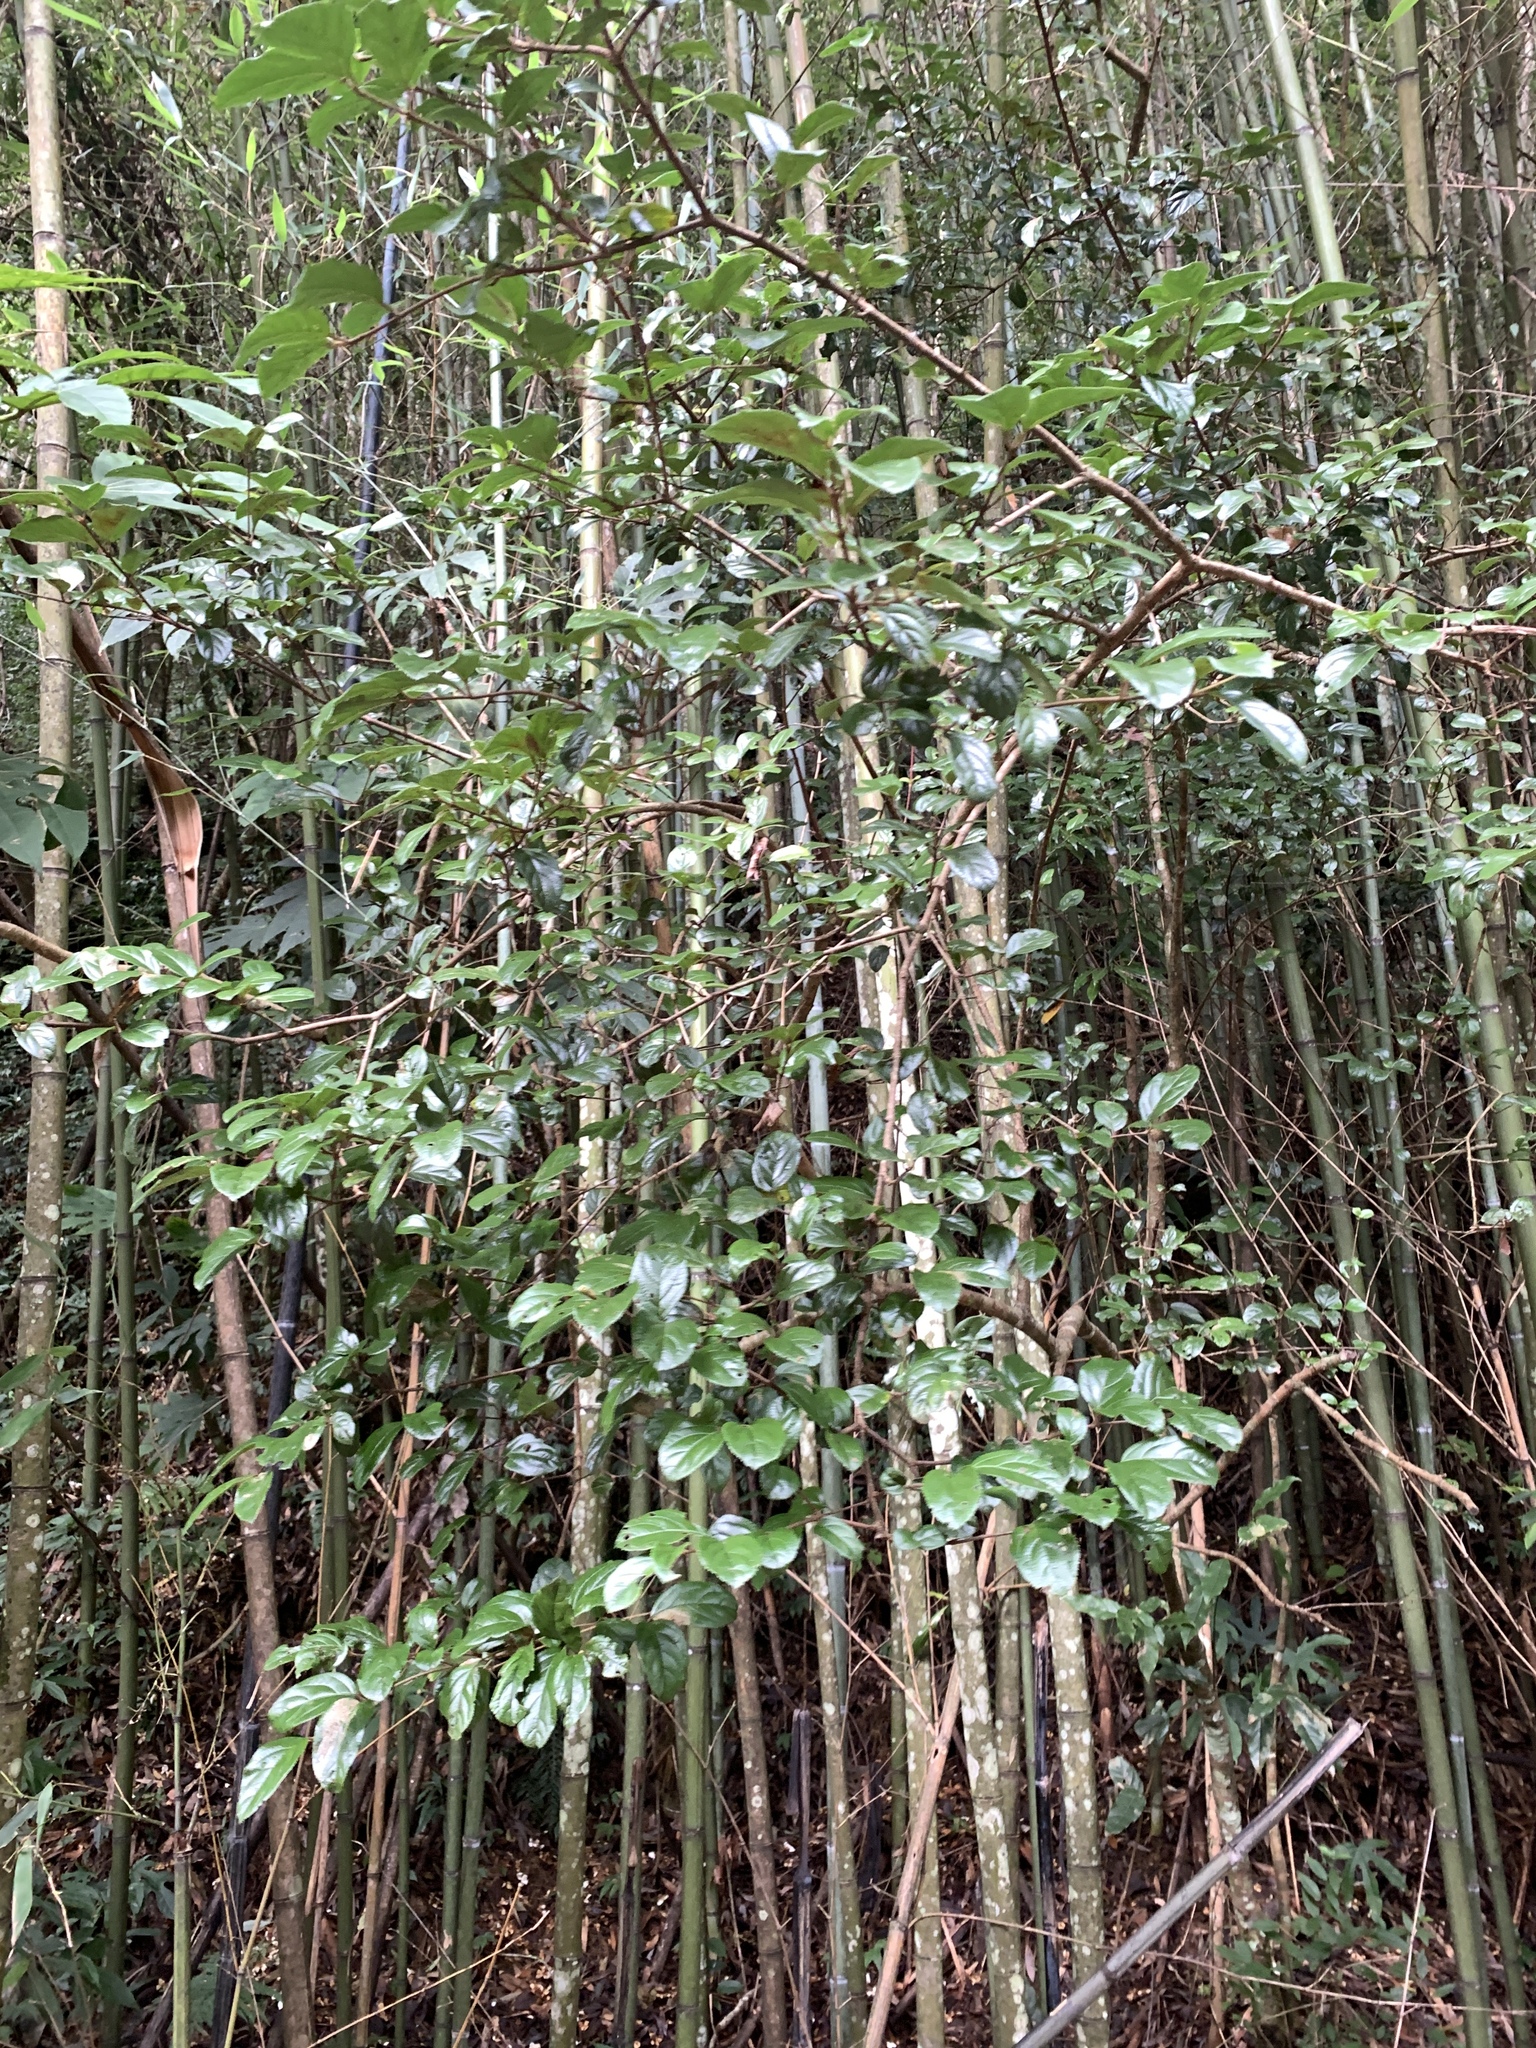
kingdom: Plantae
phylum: Tracheophyta
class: Magnoliopsida
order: Dipsacales
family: Viburnaceae
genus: Viburnum
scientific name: Viburnum suspensum
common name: Viburnum
